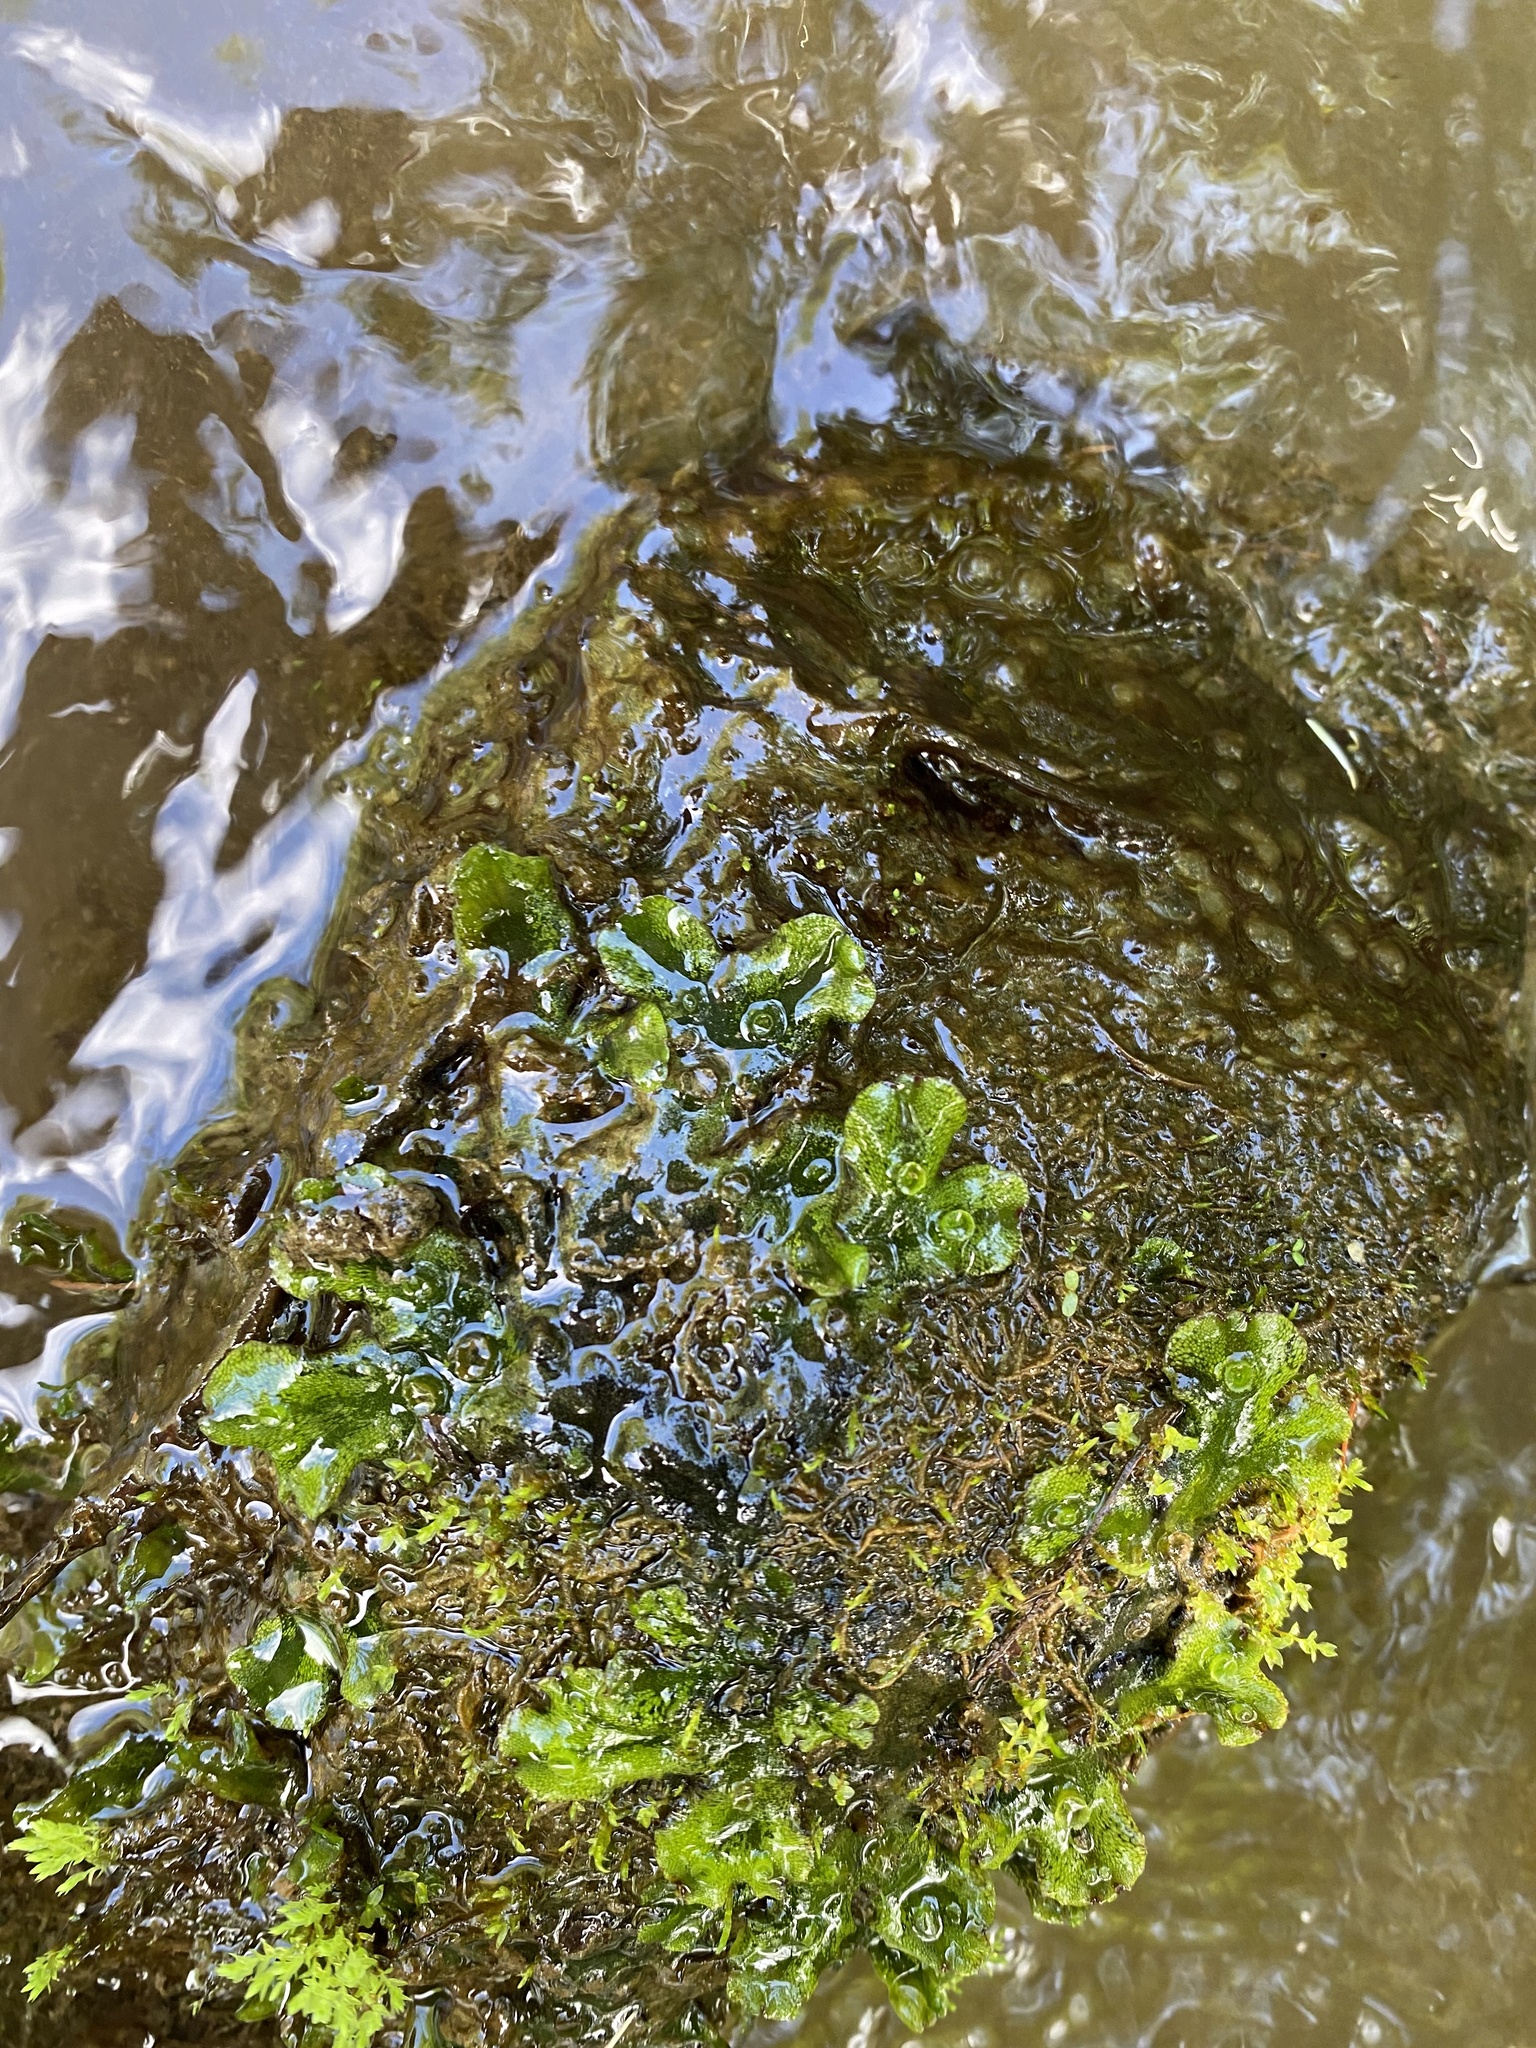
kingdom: Plantae
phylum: Marchantiophyta
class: Marchantiopsida
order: Marchantiales
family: Marchantiaceae
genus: Marchantia
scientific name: Marchantia polymorpha
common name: Common liverwort
